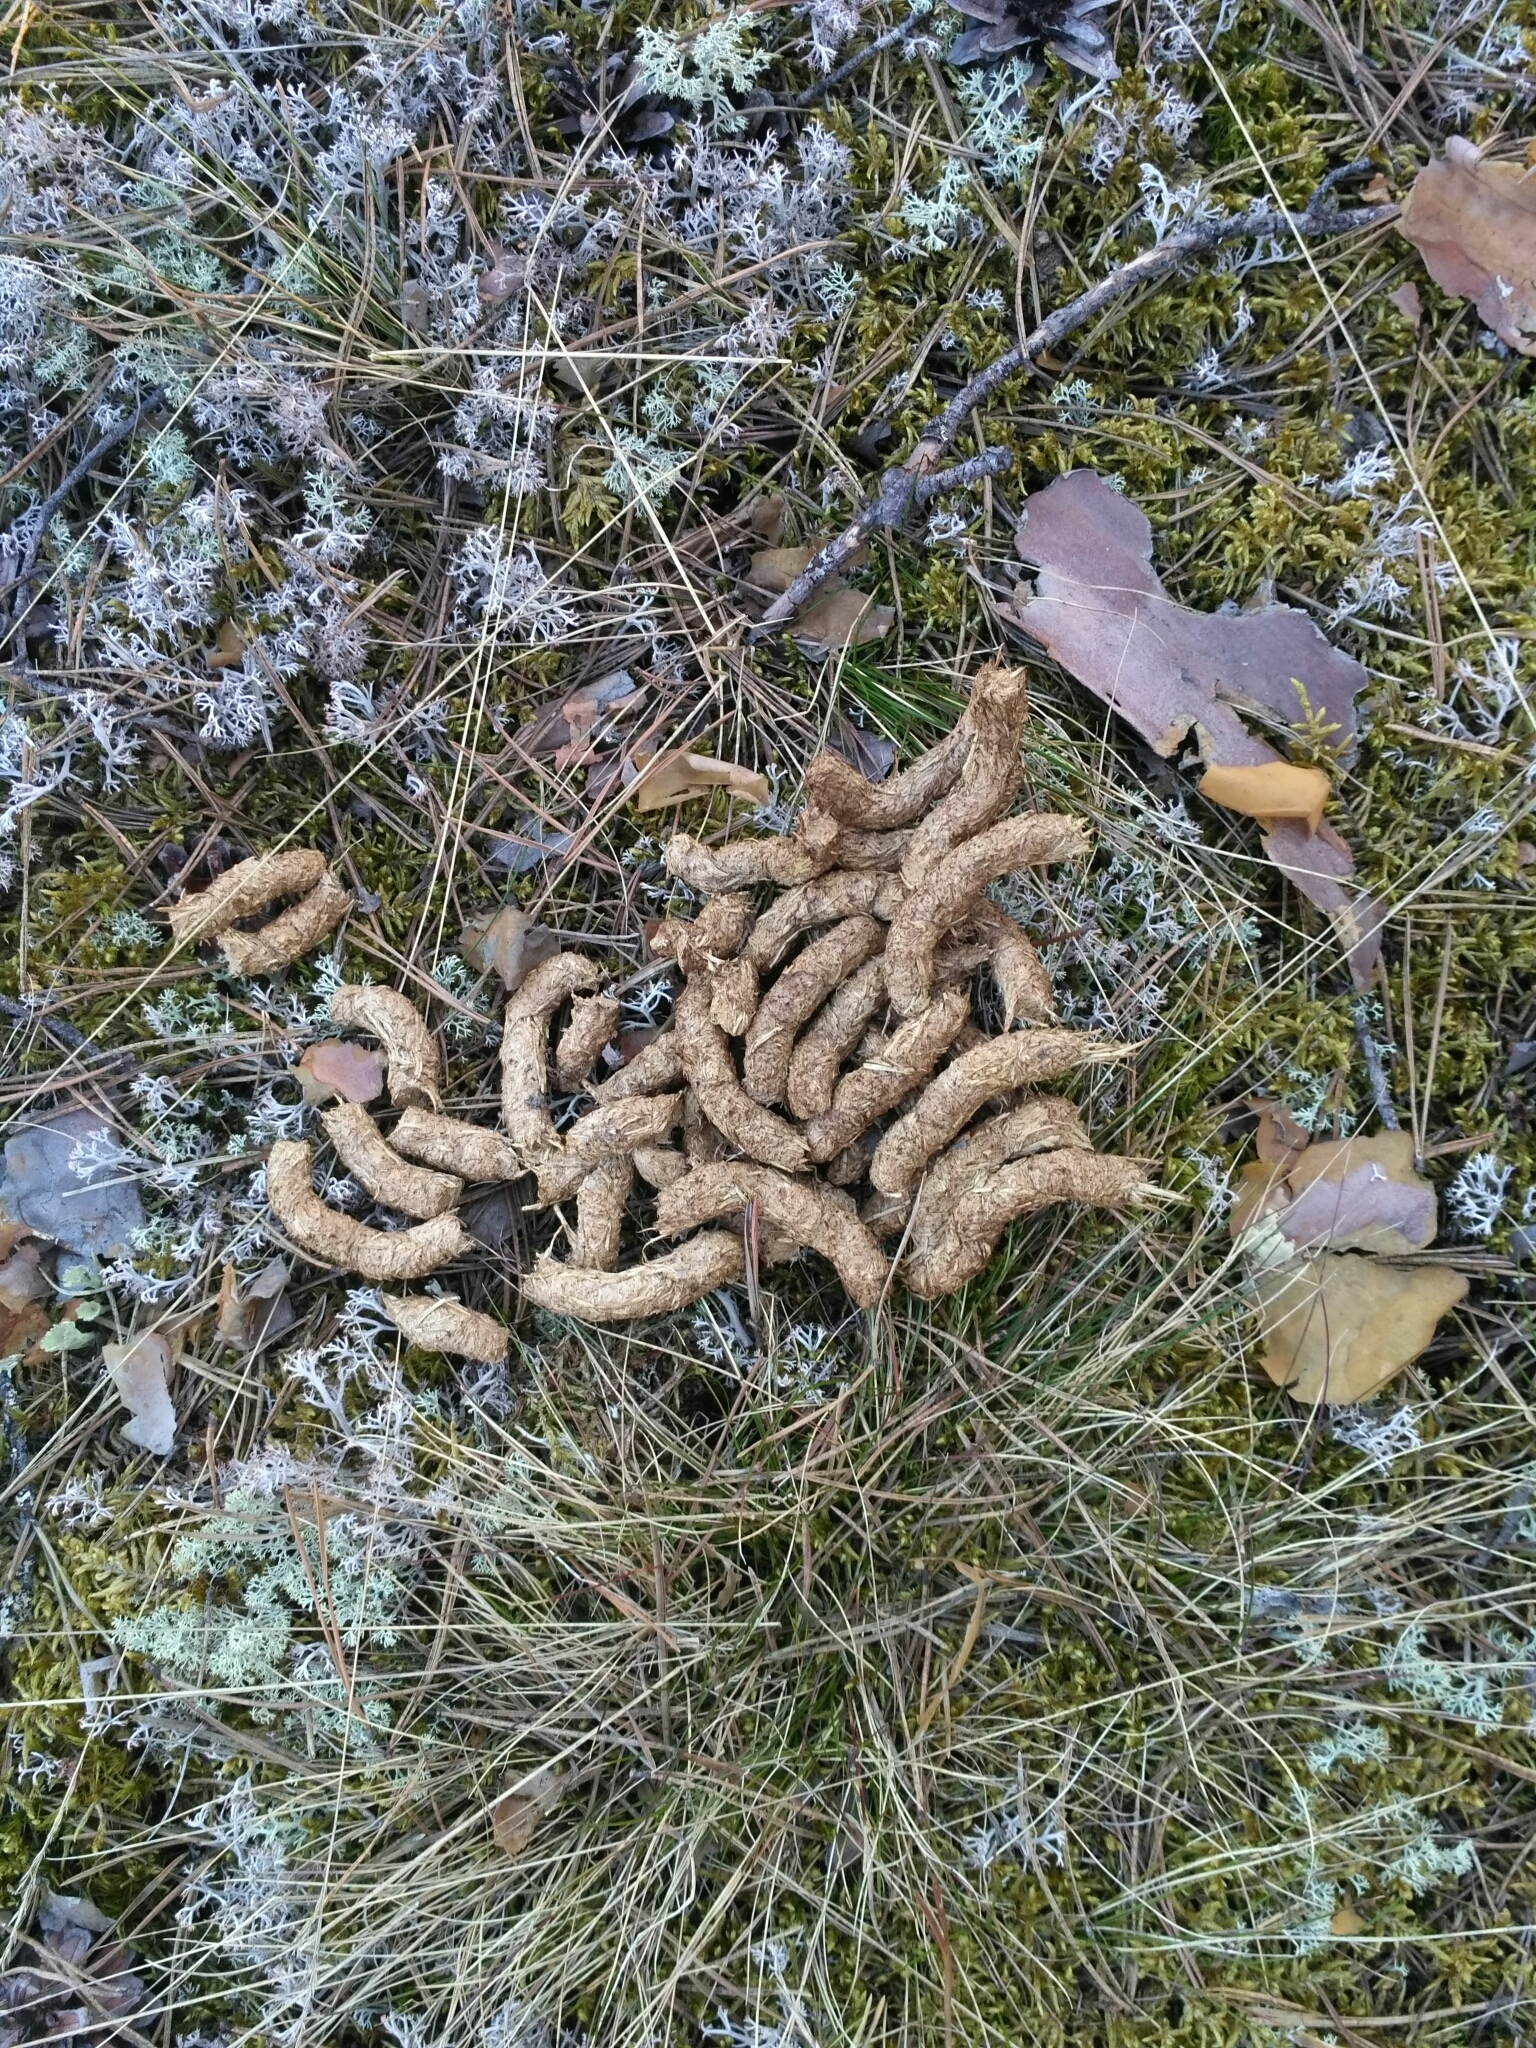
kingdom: Animalia
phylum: Chordata
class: Aves
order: Galliformes
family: Phasianidae
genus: Tetrastes
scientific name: Tetrastes bonasia
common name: Hazel grouse
